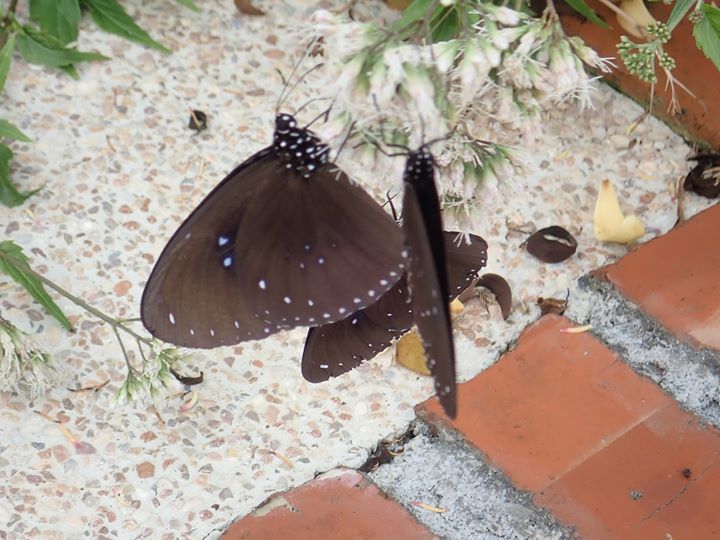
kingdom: Animalia
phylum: Arthropoda
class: Insecta
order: Lepidoptera
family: Nymphalidae
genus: Euploea
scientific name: Euploea sylvester
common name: Double-branded crow butterfly
